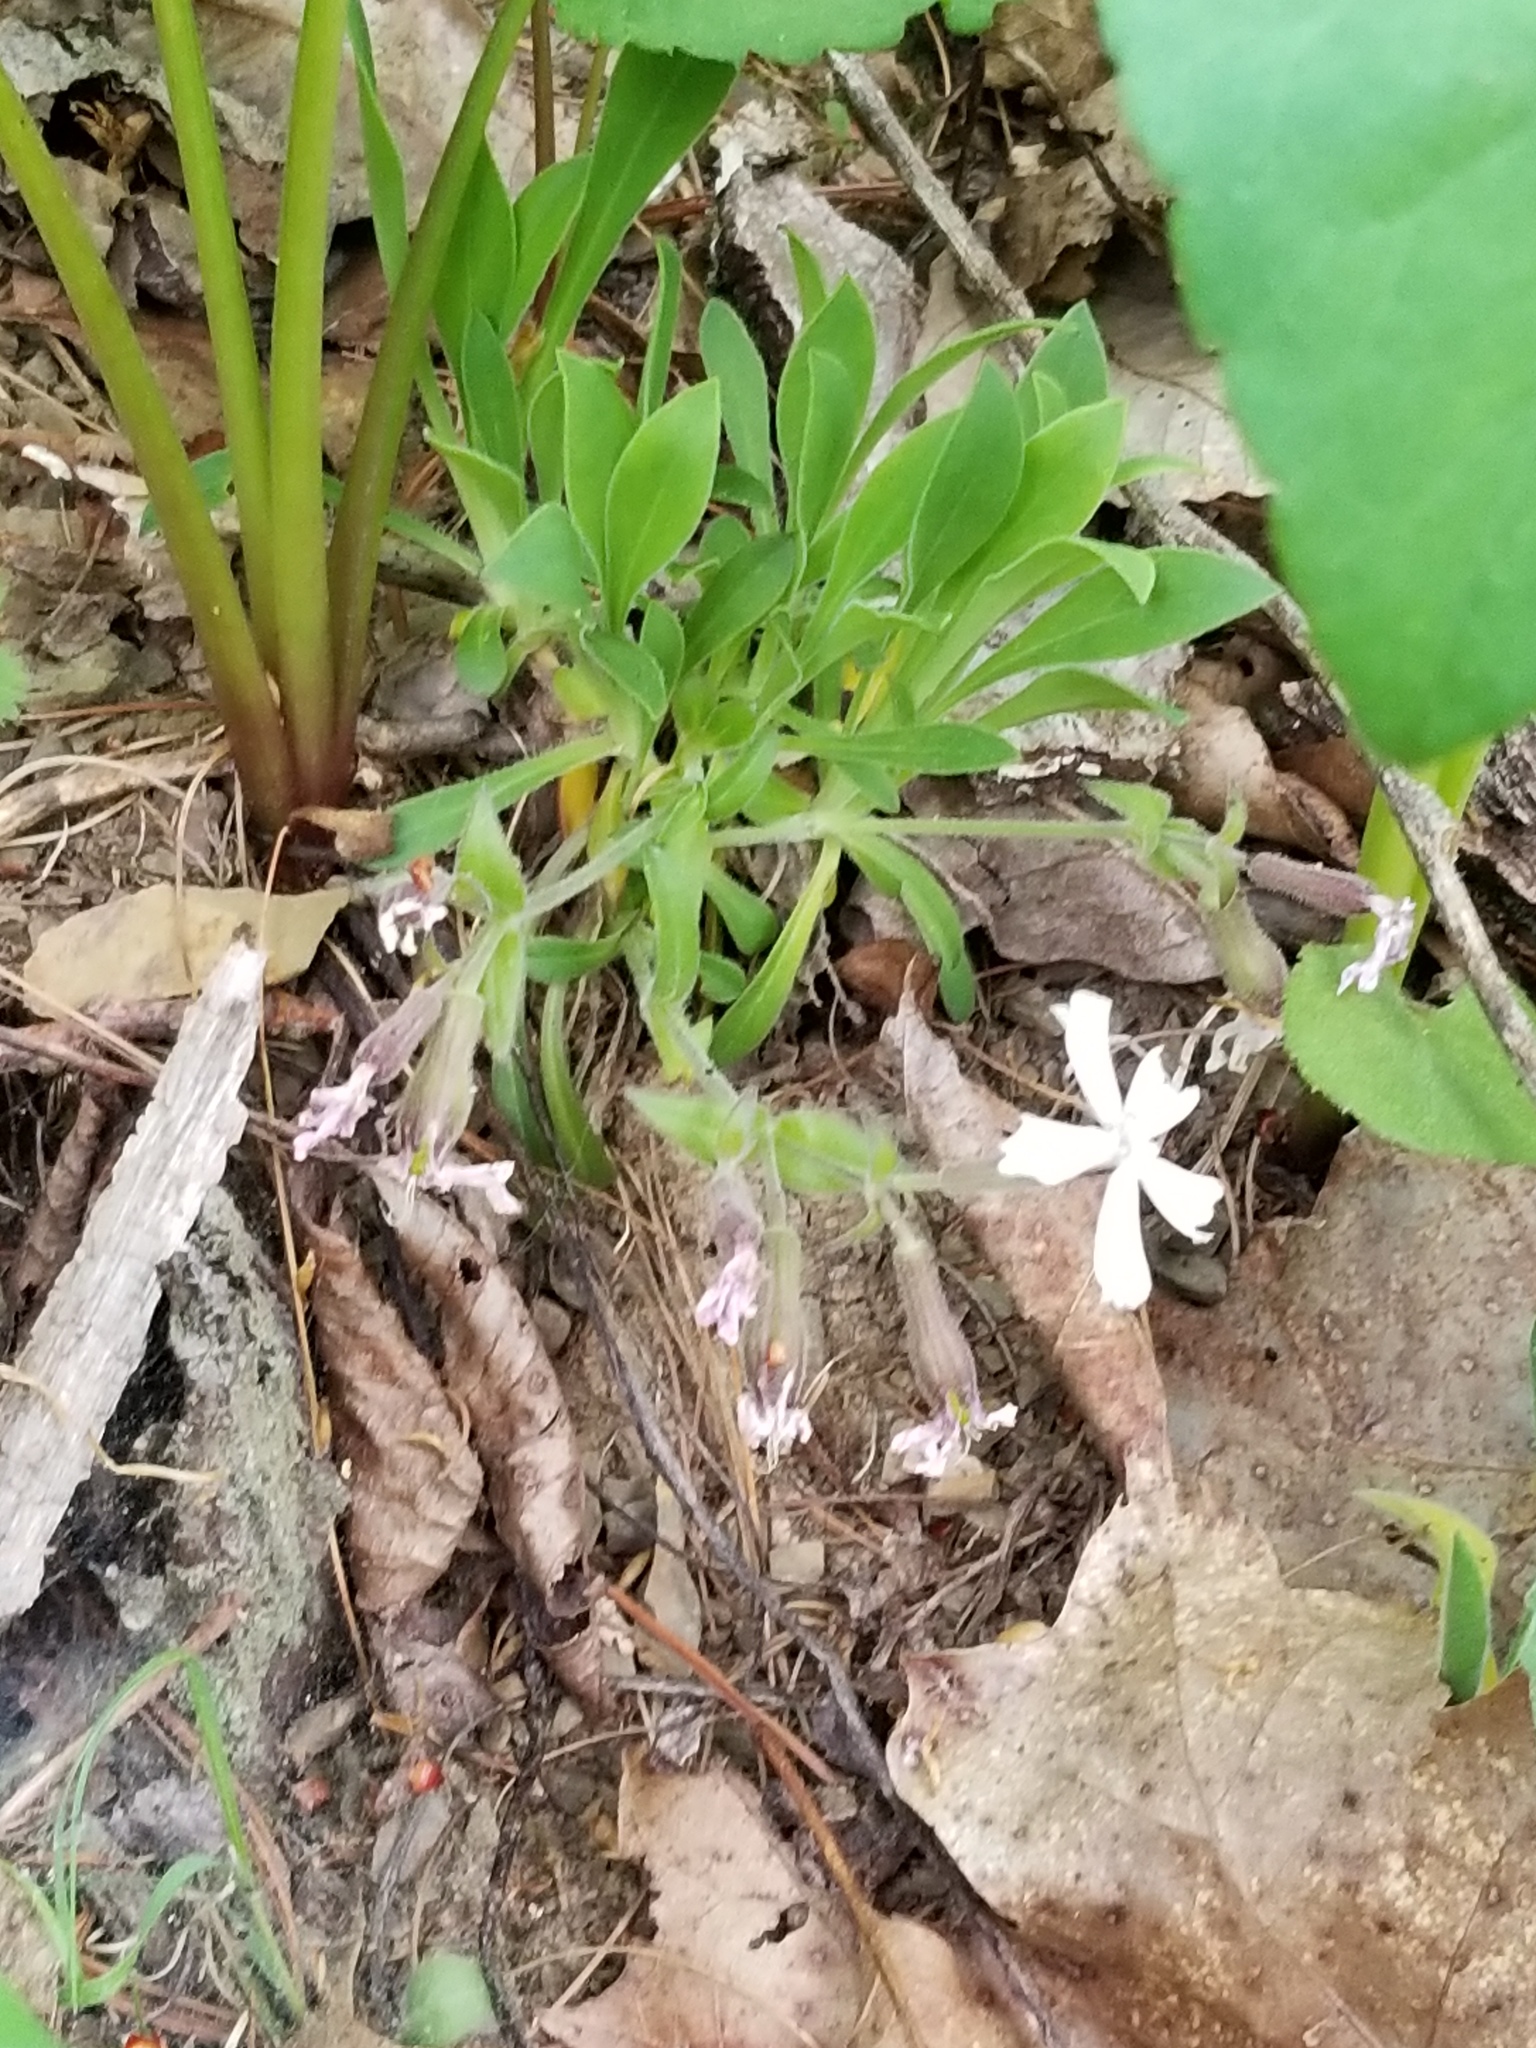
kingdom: Plantae
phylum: Tracheophyta
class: Magnoliopsida
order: Caryophyllales
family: Caryophyllaceae
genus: Silene
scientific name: Silene caroliniana
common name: Sticky catchfly
